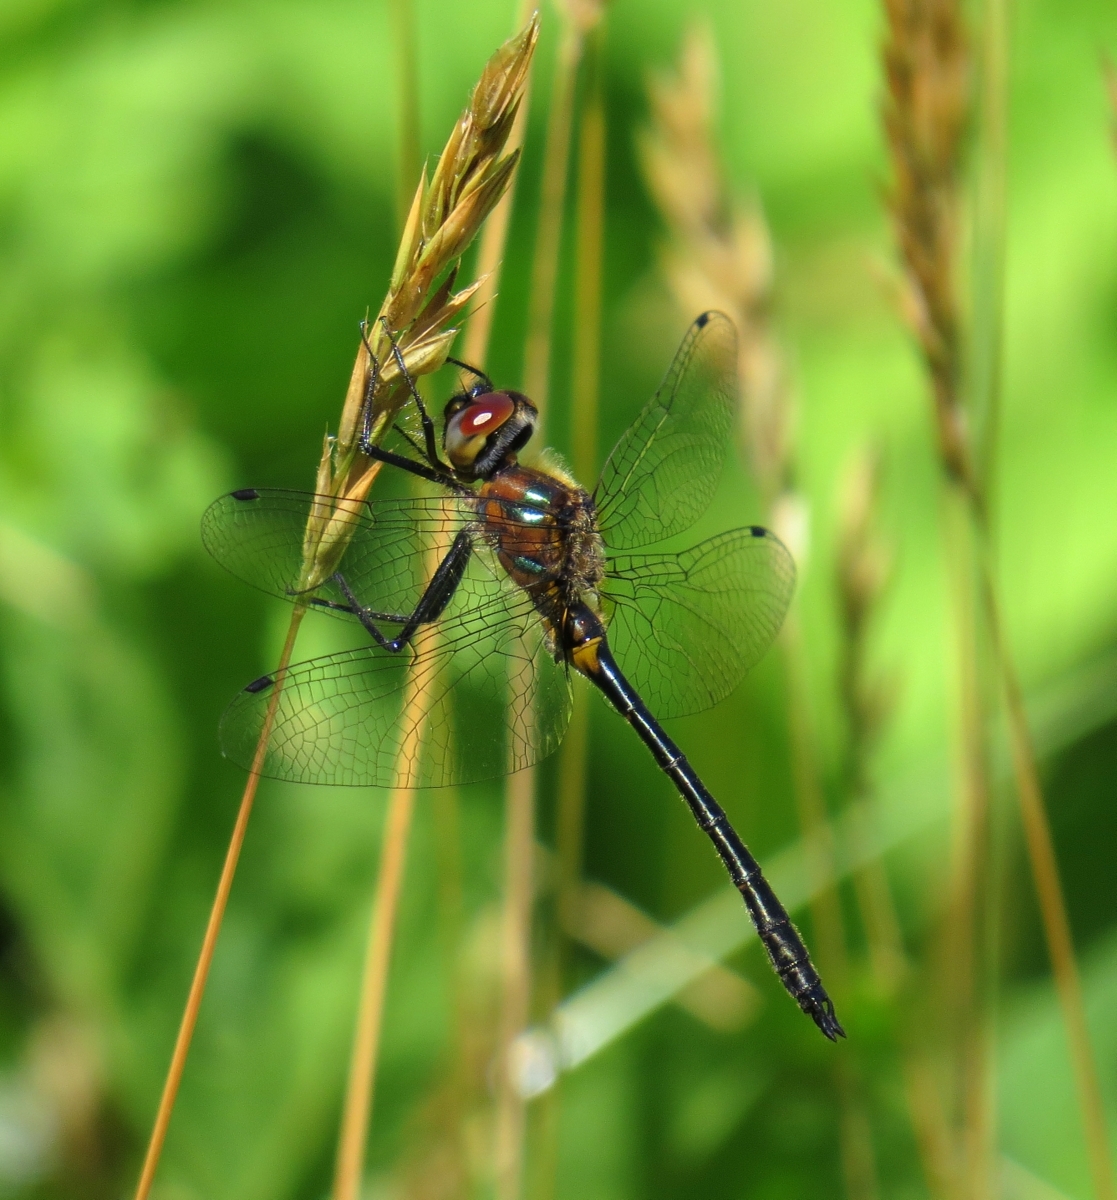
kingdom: Animalia
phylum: Arthropoda
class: Insecta
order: Odonata
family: Corduliidae
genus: Dorocordulia
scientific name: Dorocordulia lepida
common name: Petite emerald
